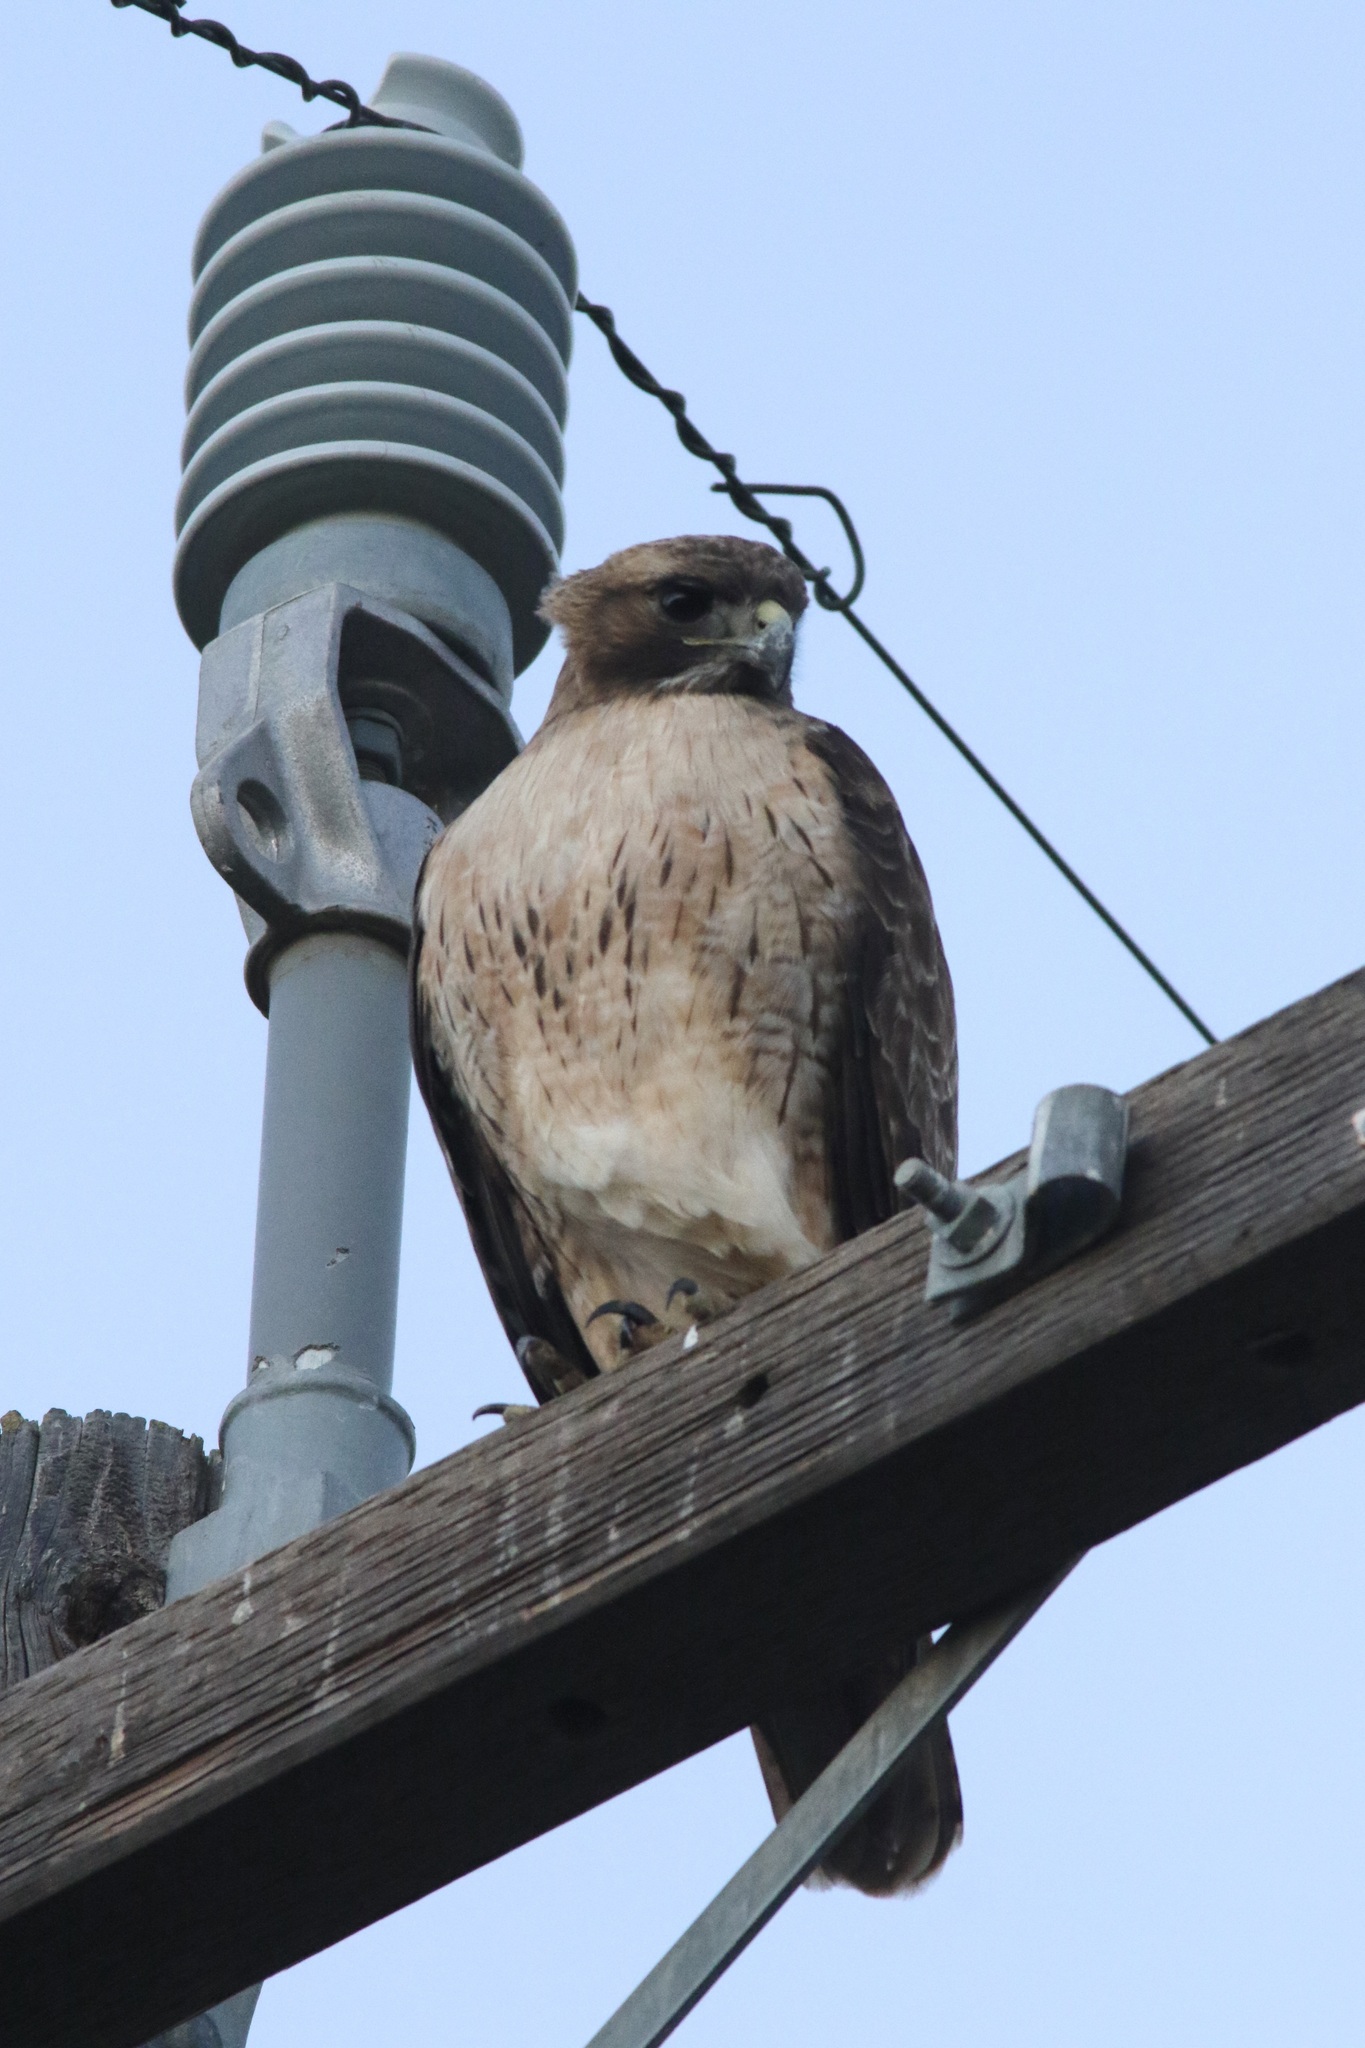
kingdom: Animalia
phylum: Chordata
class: Aves
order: Accipitriformes
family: Accipitridae
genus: Buteo
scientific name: Buteo jamaicensis
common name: Red-tailed hawk
